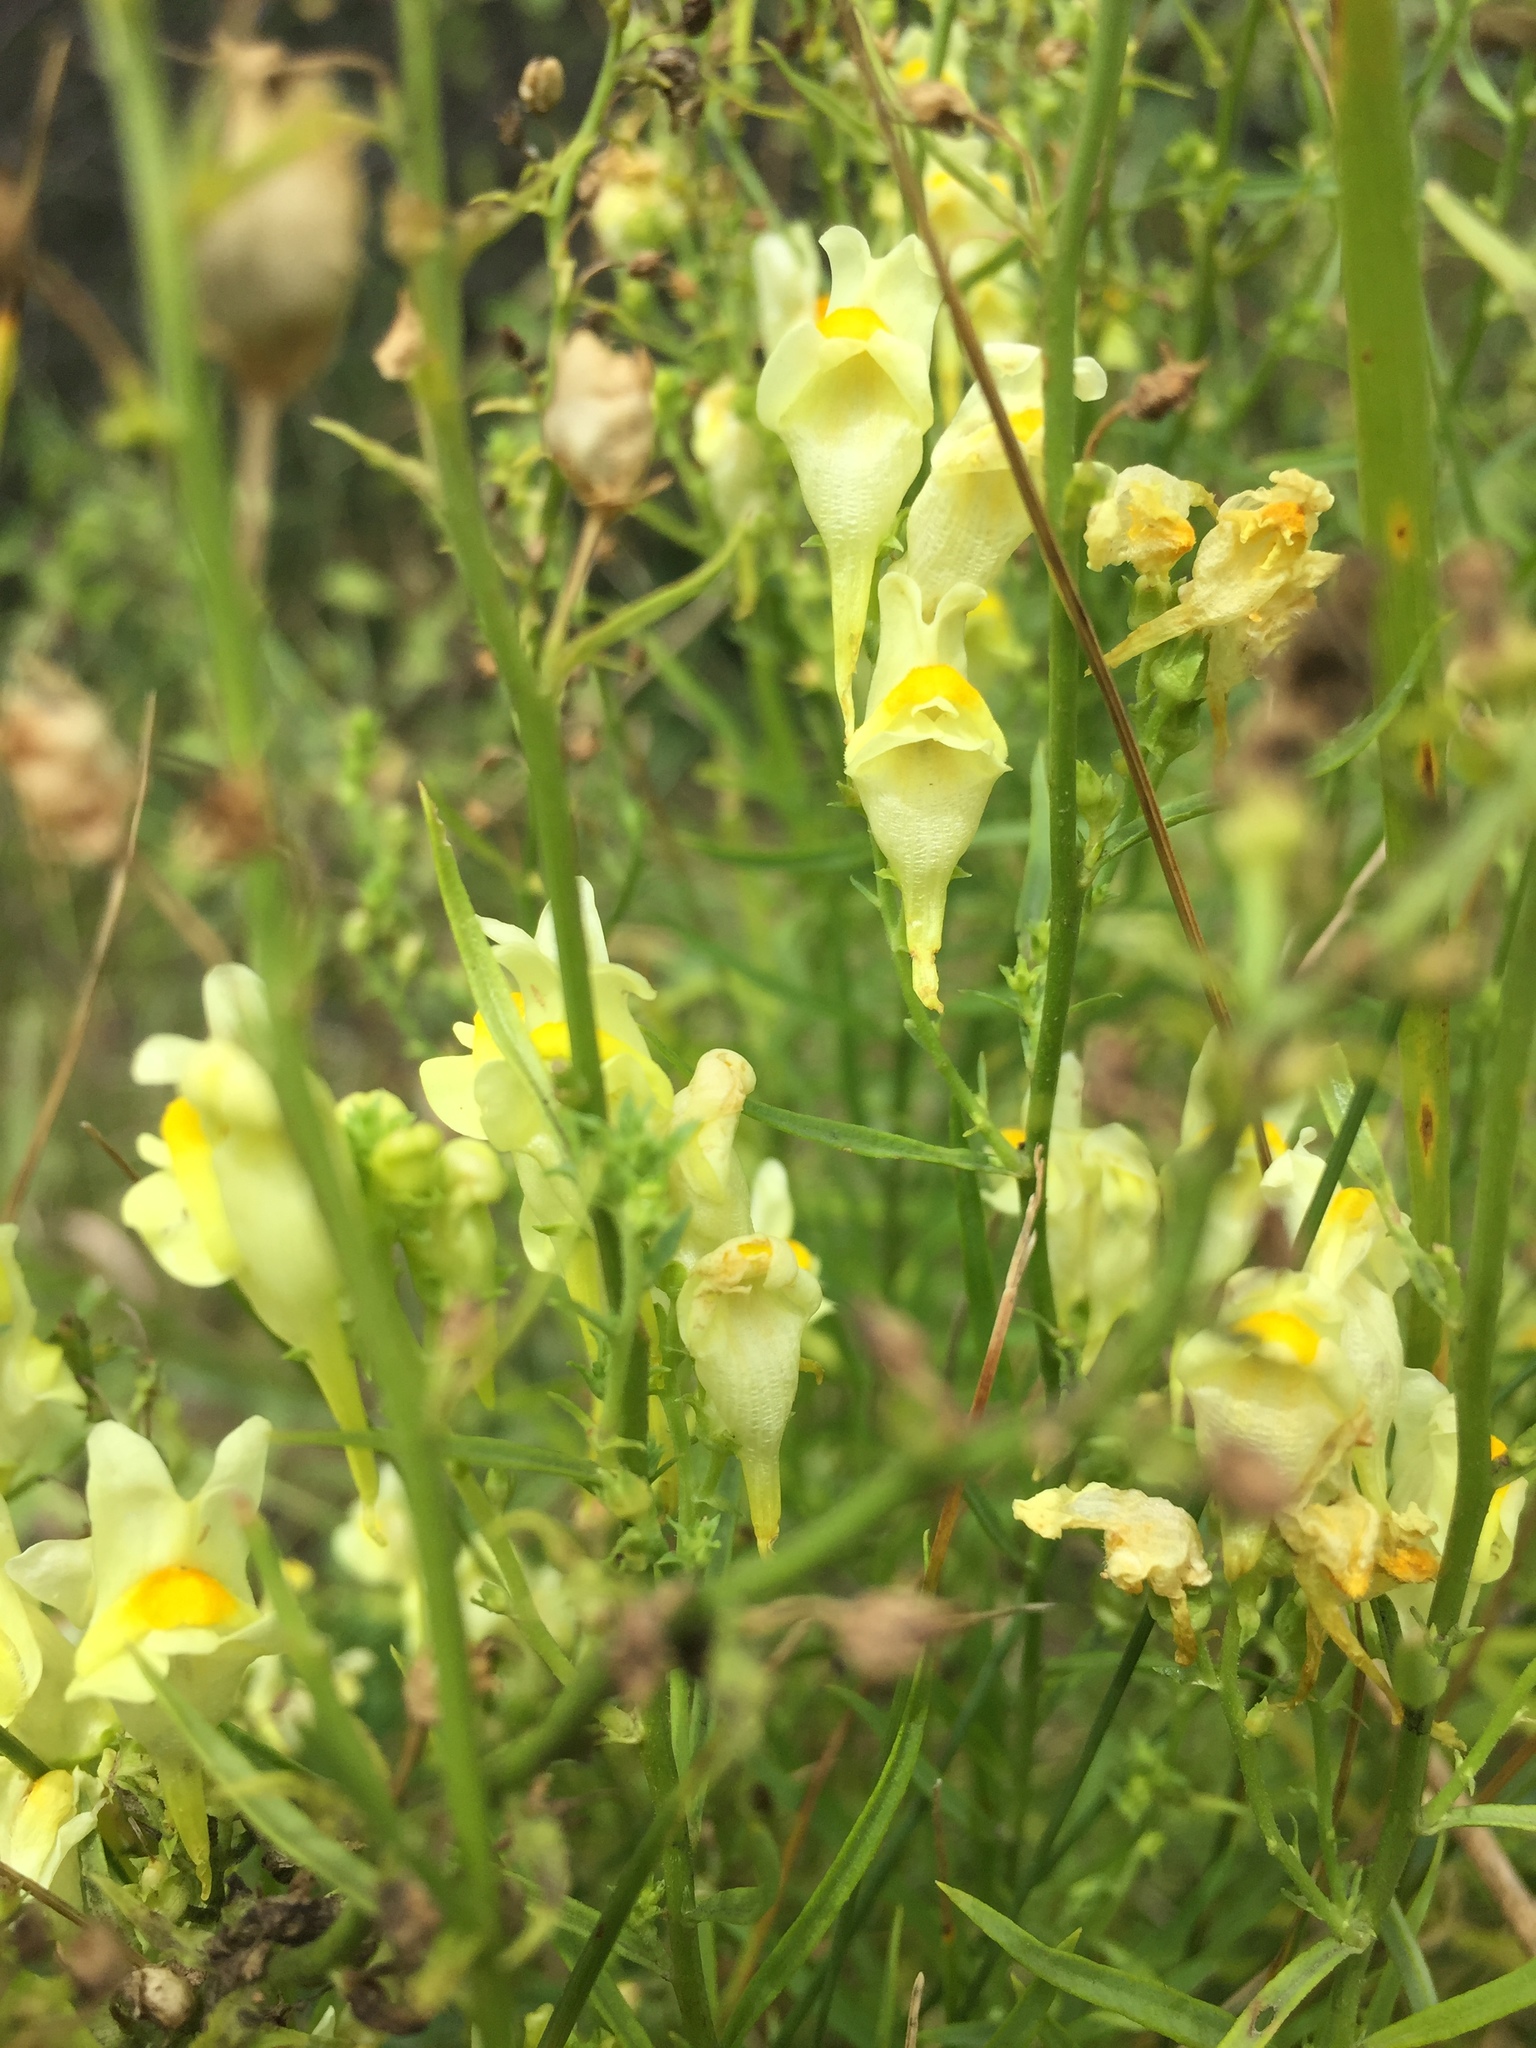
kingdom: Plantae
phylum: Tracheophyta
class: Magnoliopsida
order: Lamiales
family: Plantaginaceae
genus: Linaria
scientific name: Linaria vulgaris
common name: Butter and eggs
